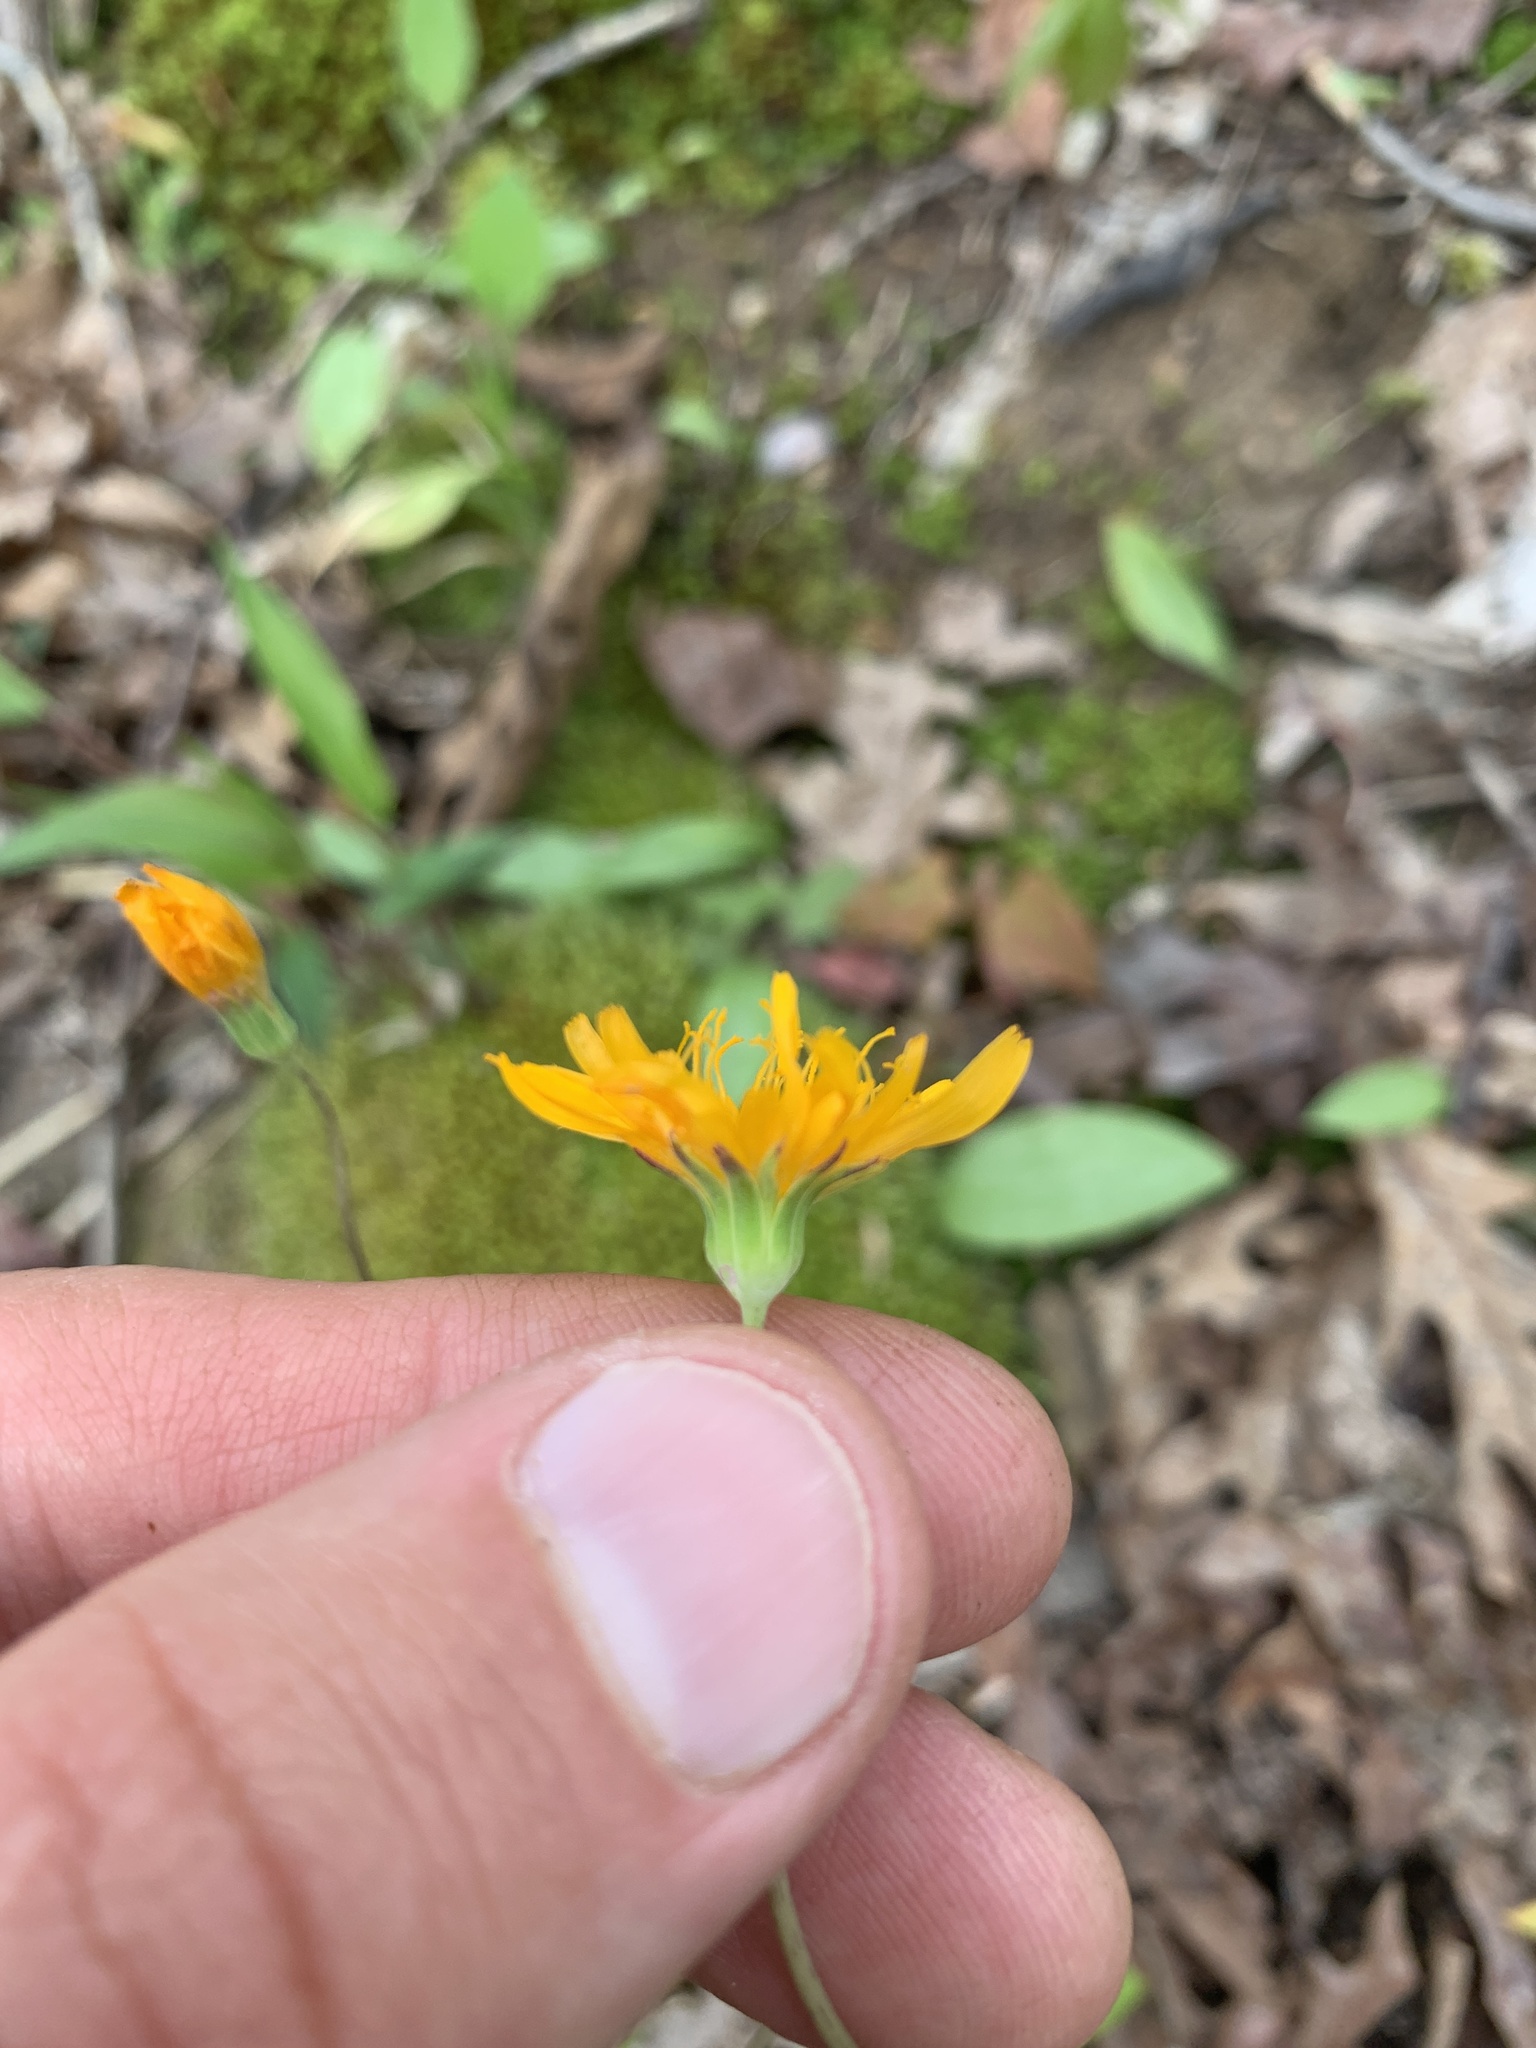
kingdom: Plantae
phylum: Tracheophyta
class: Magnoliopsida
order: Asterales
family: Asteraceae
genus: Krigia
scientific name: Krigia biflora
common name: Orange dwarf-dandelion
